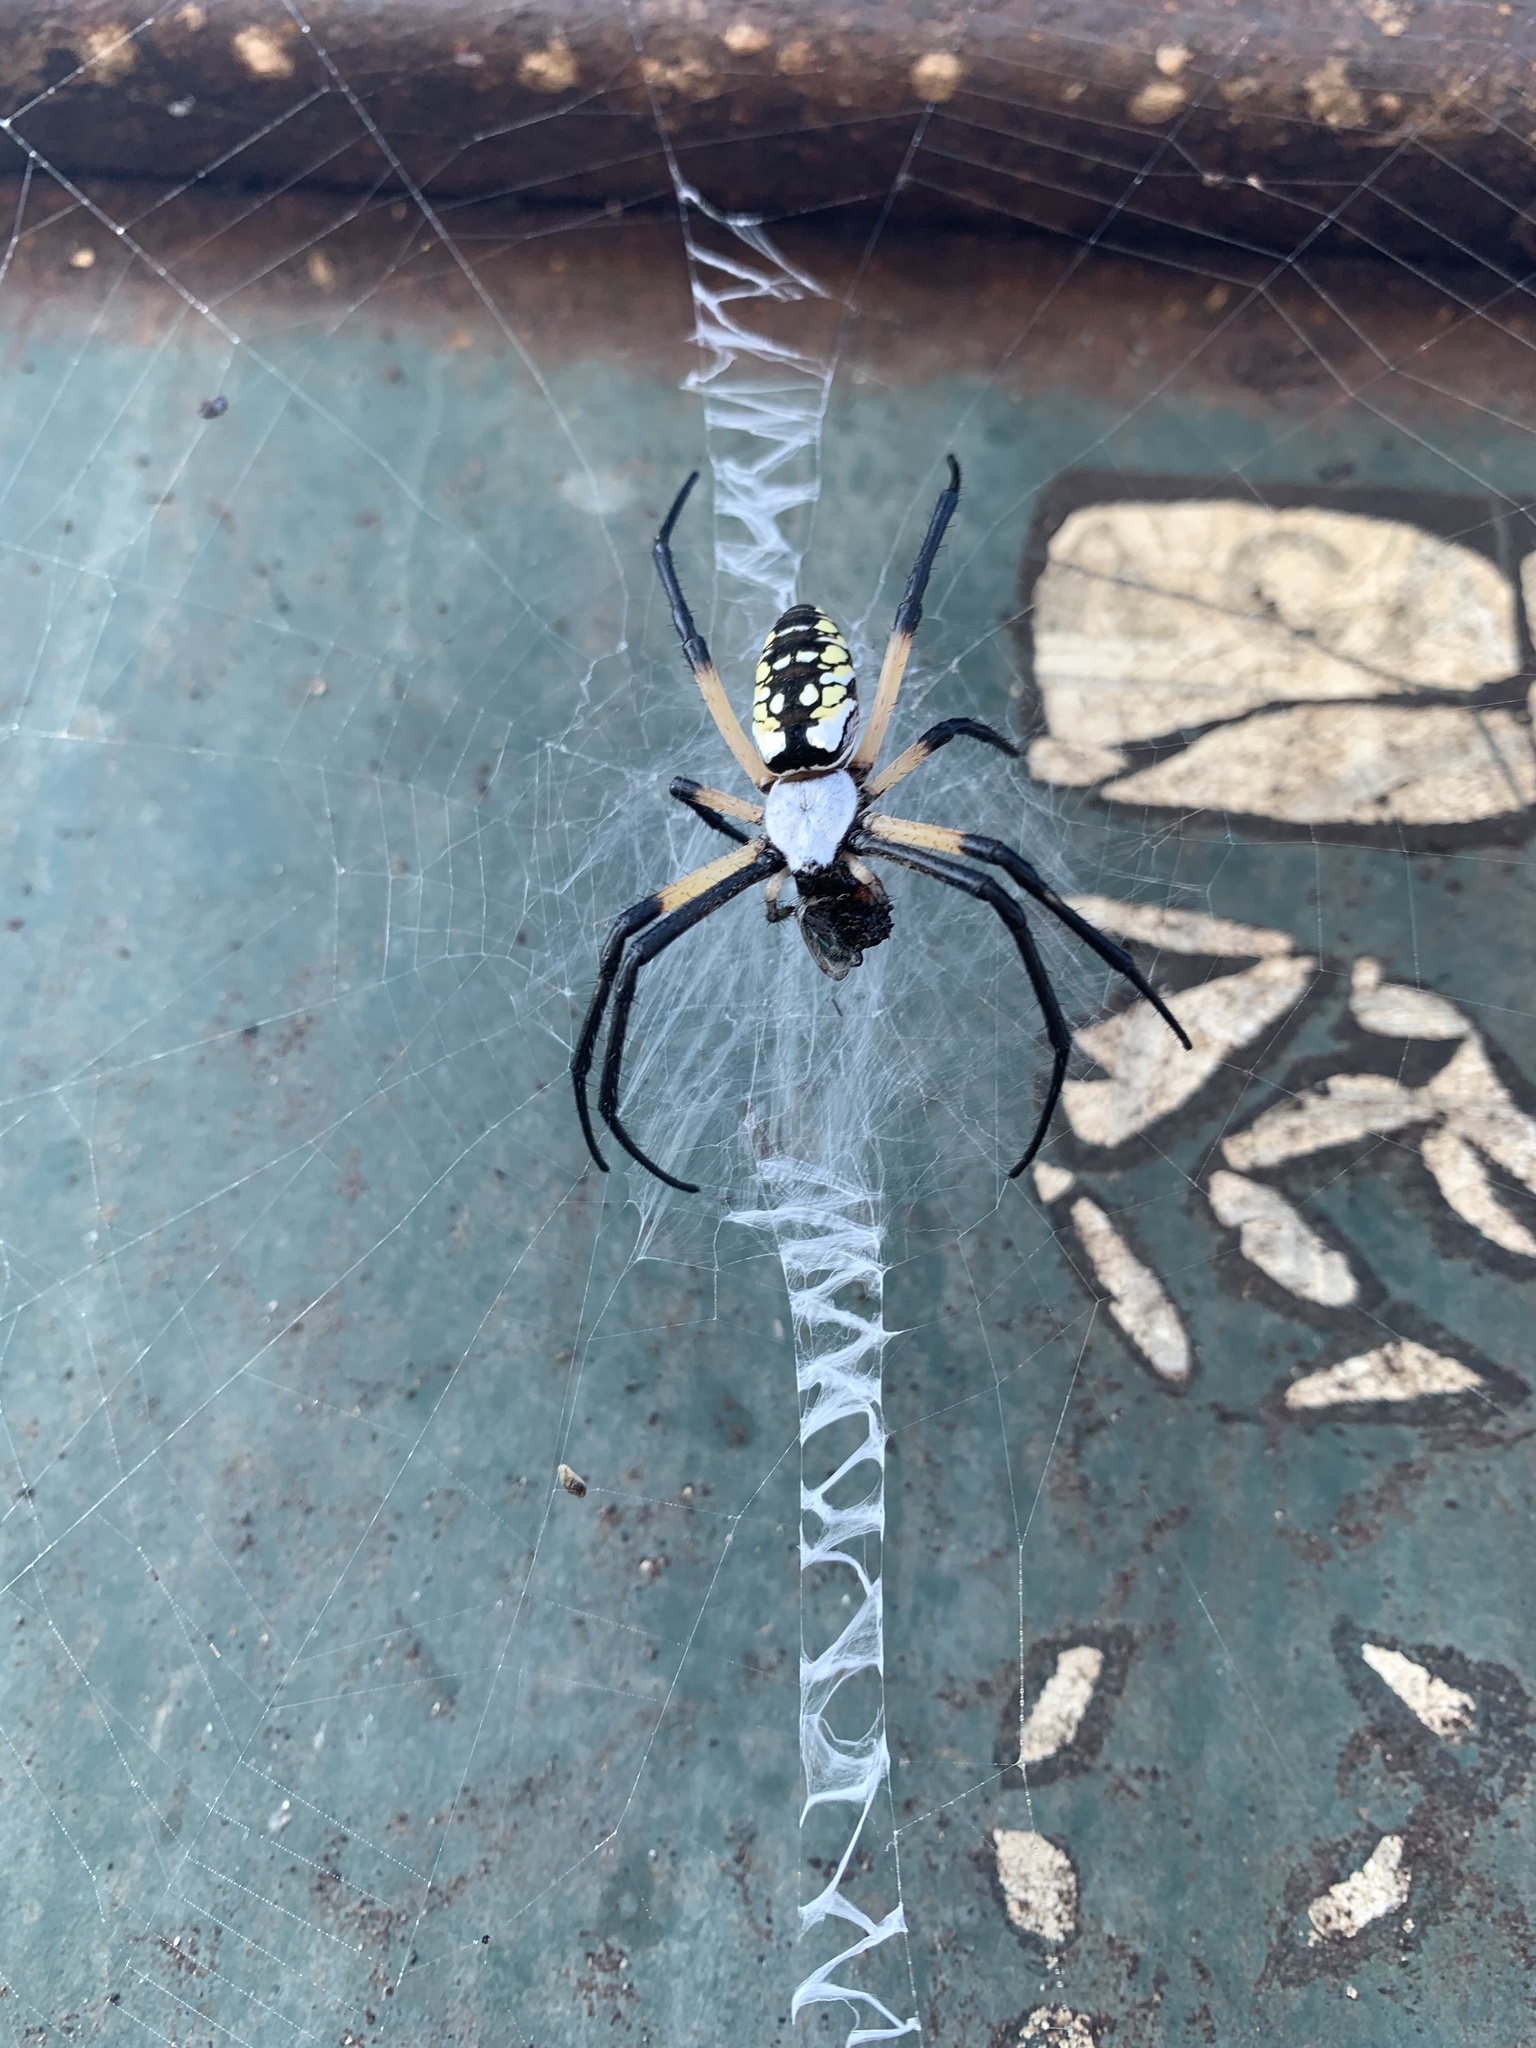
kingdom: Animalia
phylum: Arthropoda
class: Arachnida
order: Araneae
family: Araneidae
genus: Argiope
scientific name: Argiope aurantia
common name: Orb weavers
